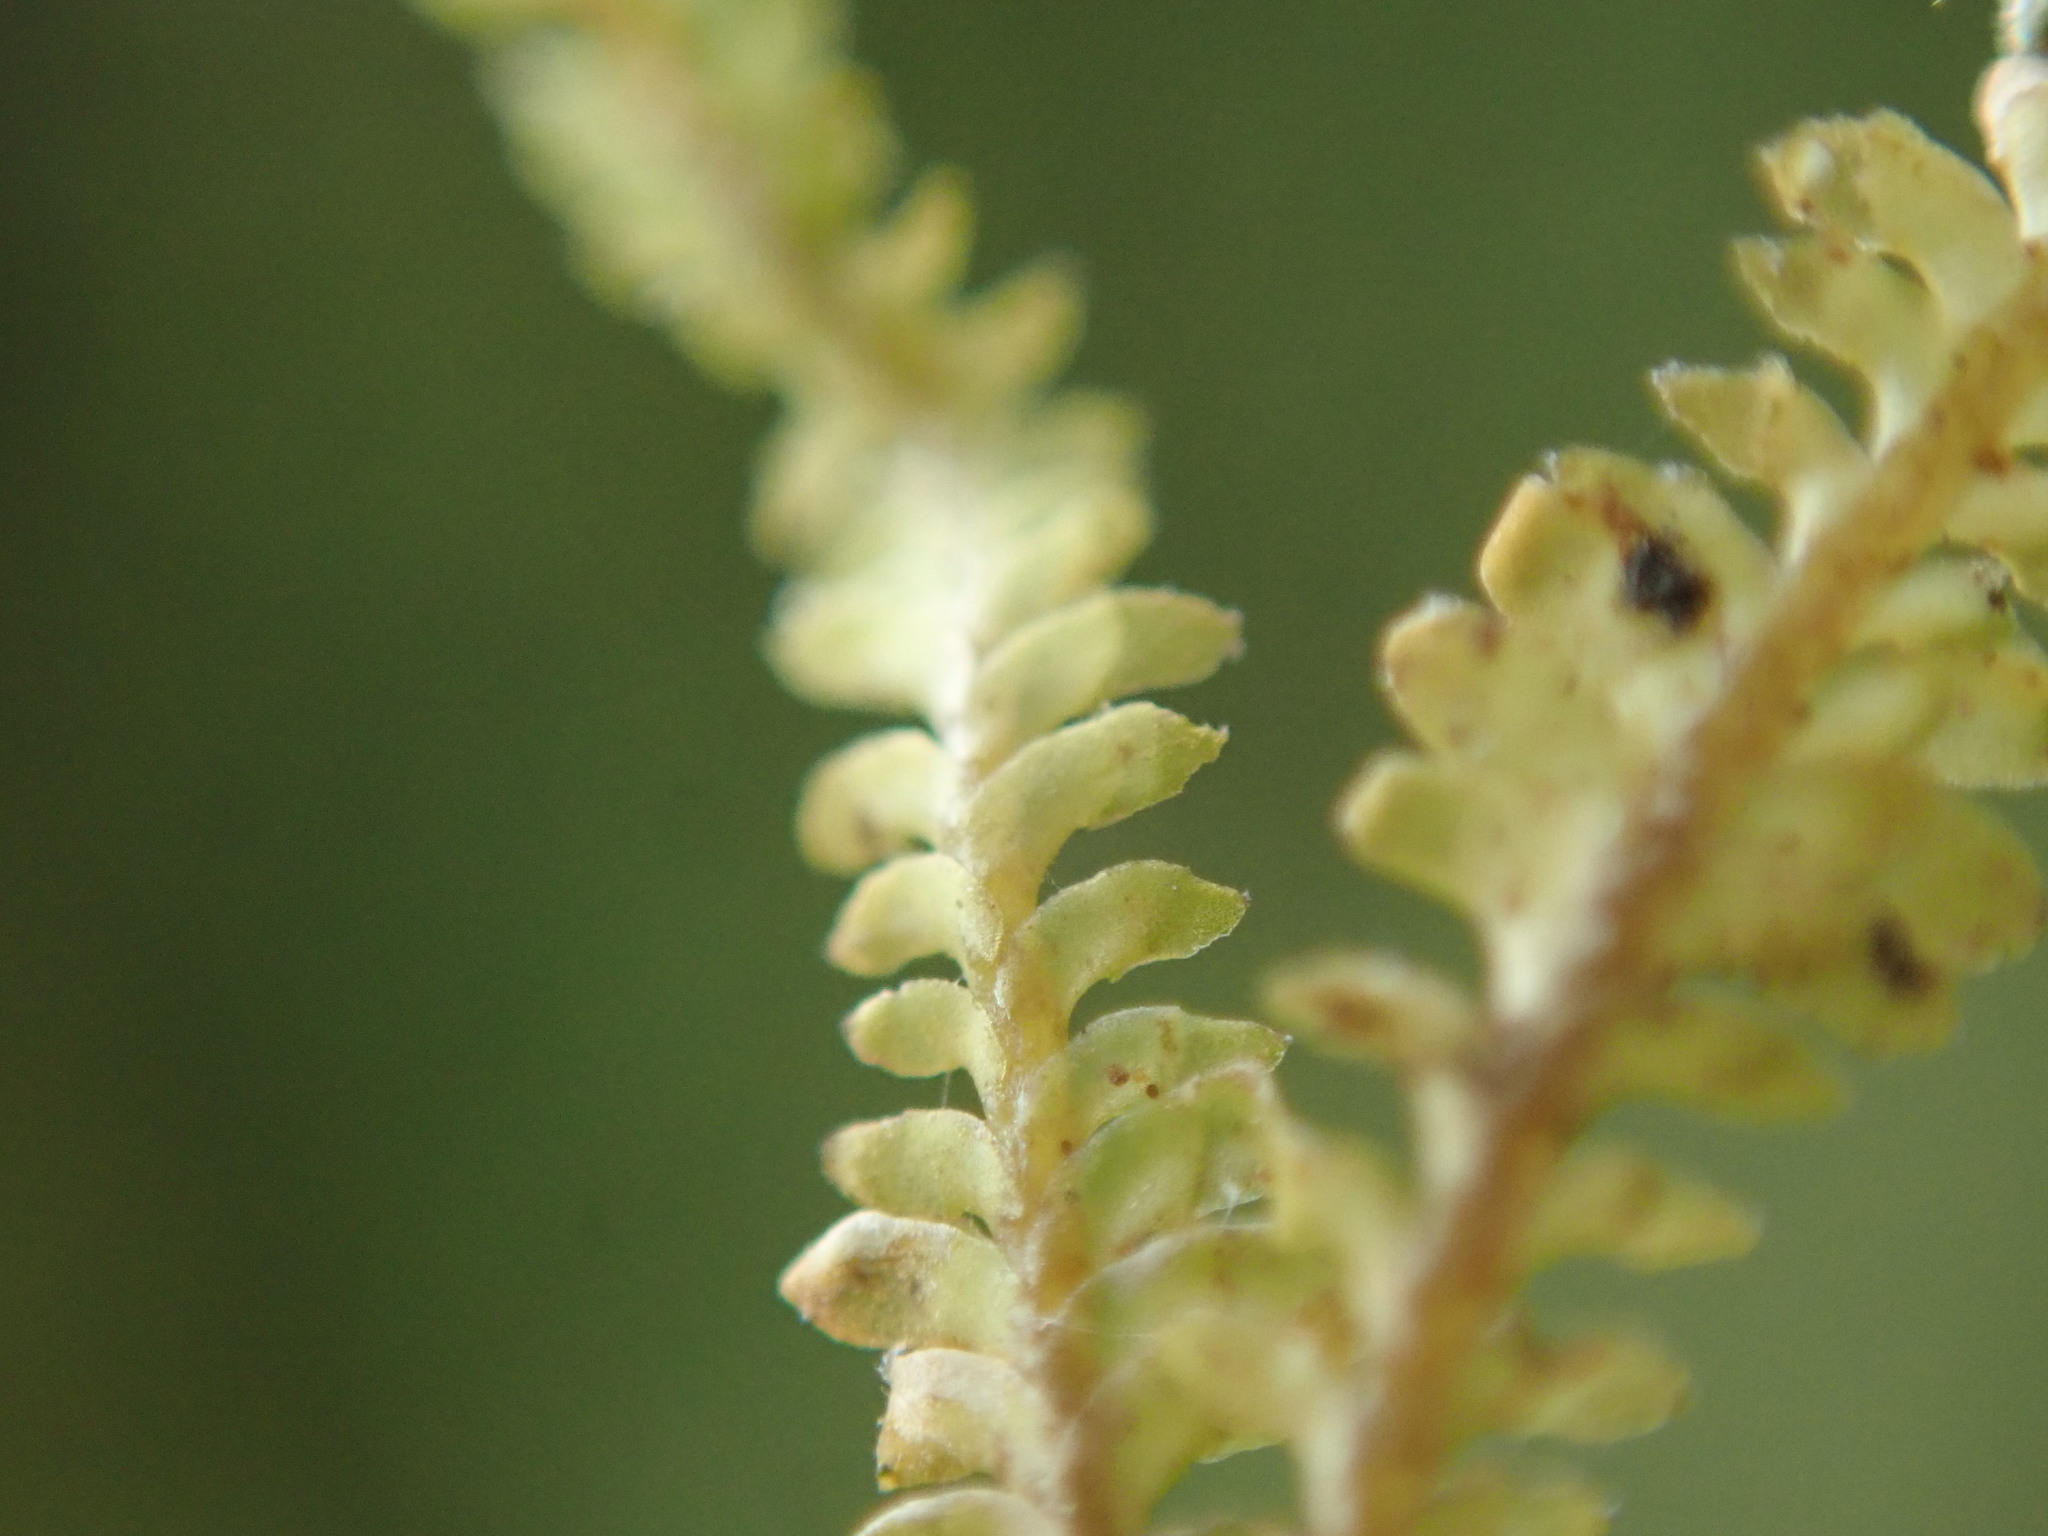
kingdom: Plantae
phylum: Marchantiophyta
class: Jungermanniopsida
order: Jungermanniales
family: Scapaniaceae
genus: Diplophyllum
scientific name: Diplophyllum taxifolium
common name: Alpine earwort
